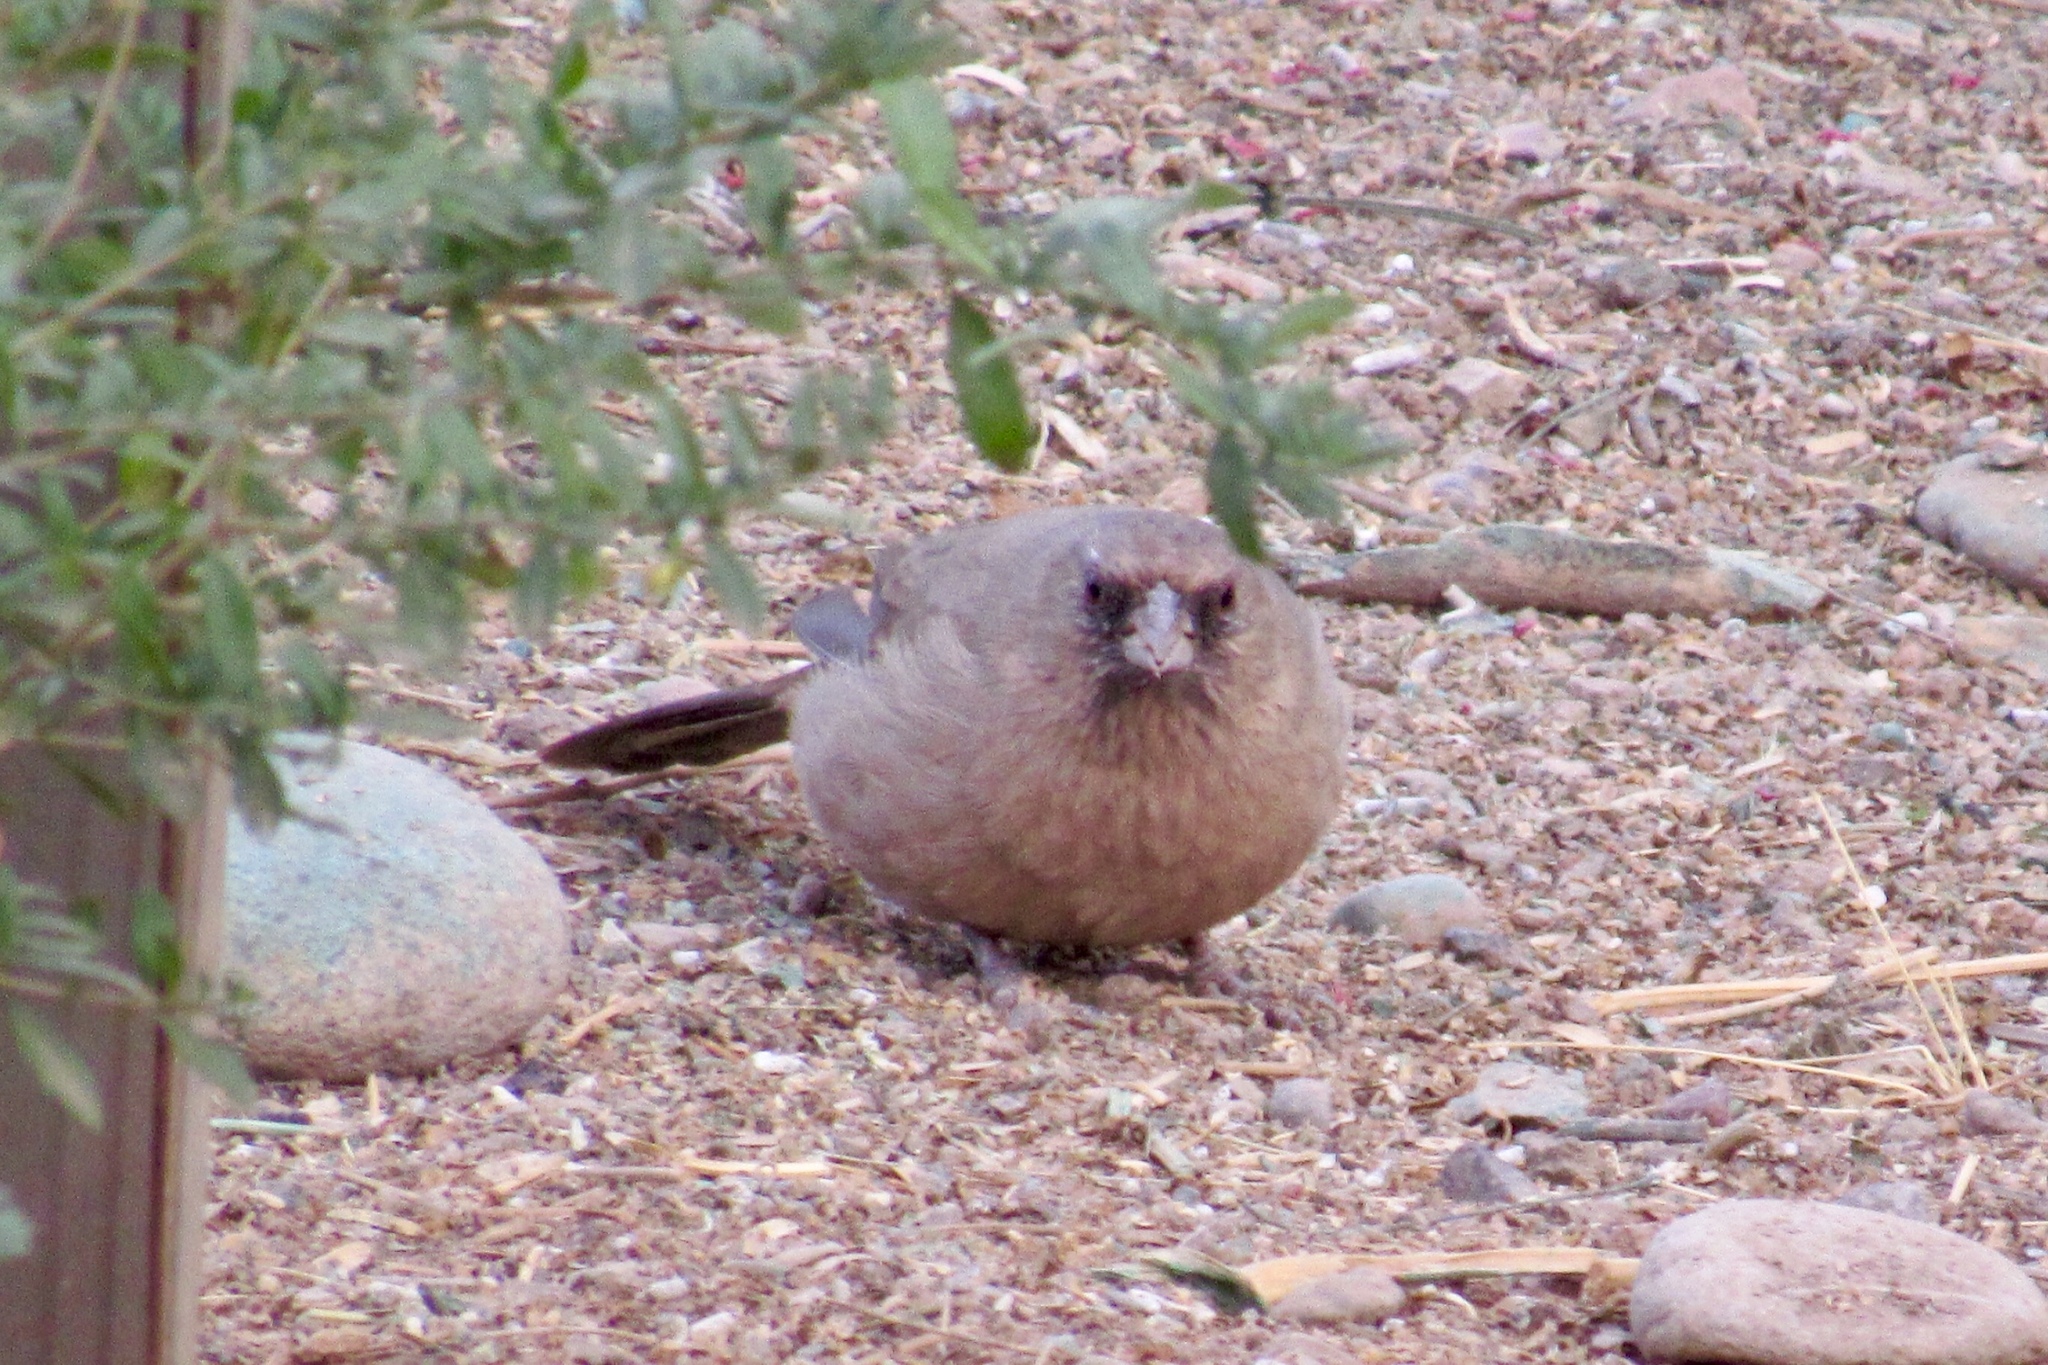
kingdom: Animalia
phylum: Chordata
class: Aves
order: Passeriformes
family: Passerellidae
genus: Melozone
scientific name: Melozone aberti
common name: Abert's towhee
